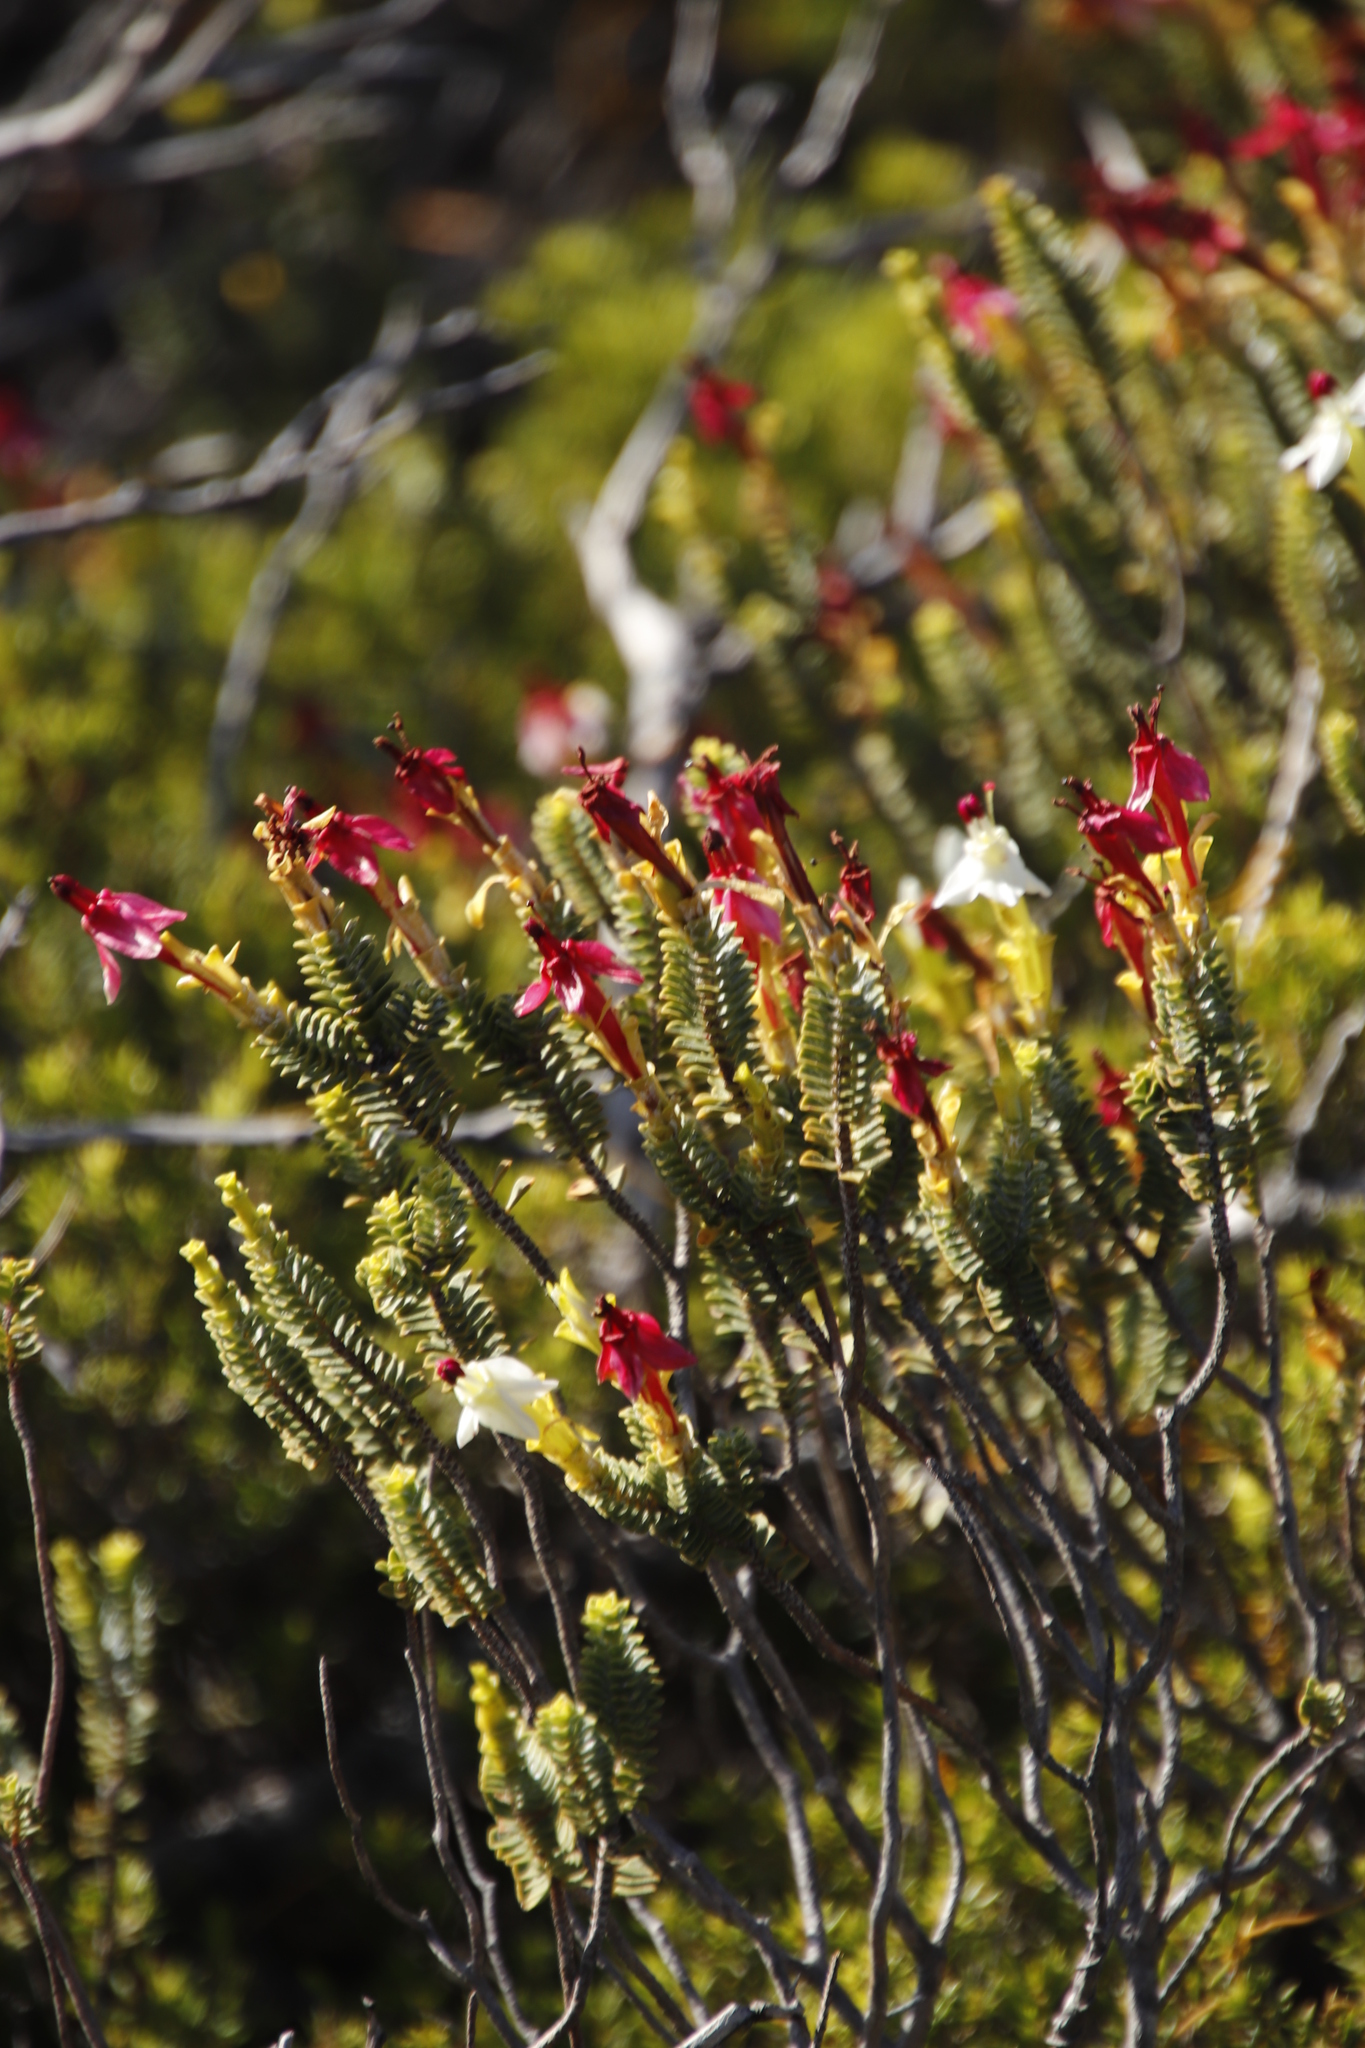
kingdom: Plantae
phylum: Tracheophyta
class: Magnoliopsida
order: Myrtales
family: Penaeaceae
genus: Saltera
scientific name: Saltera sarcocolla
